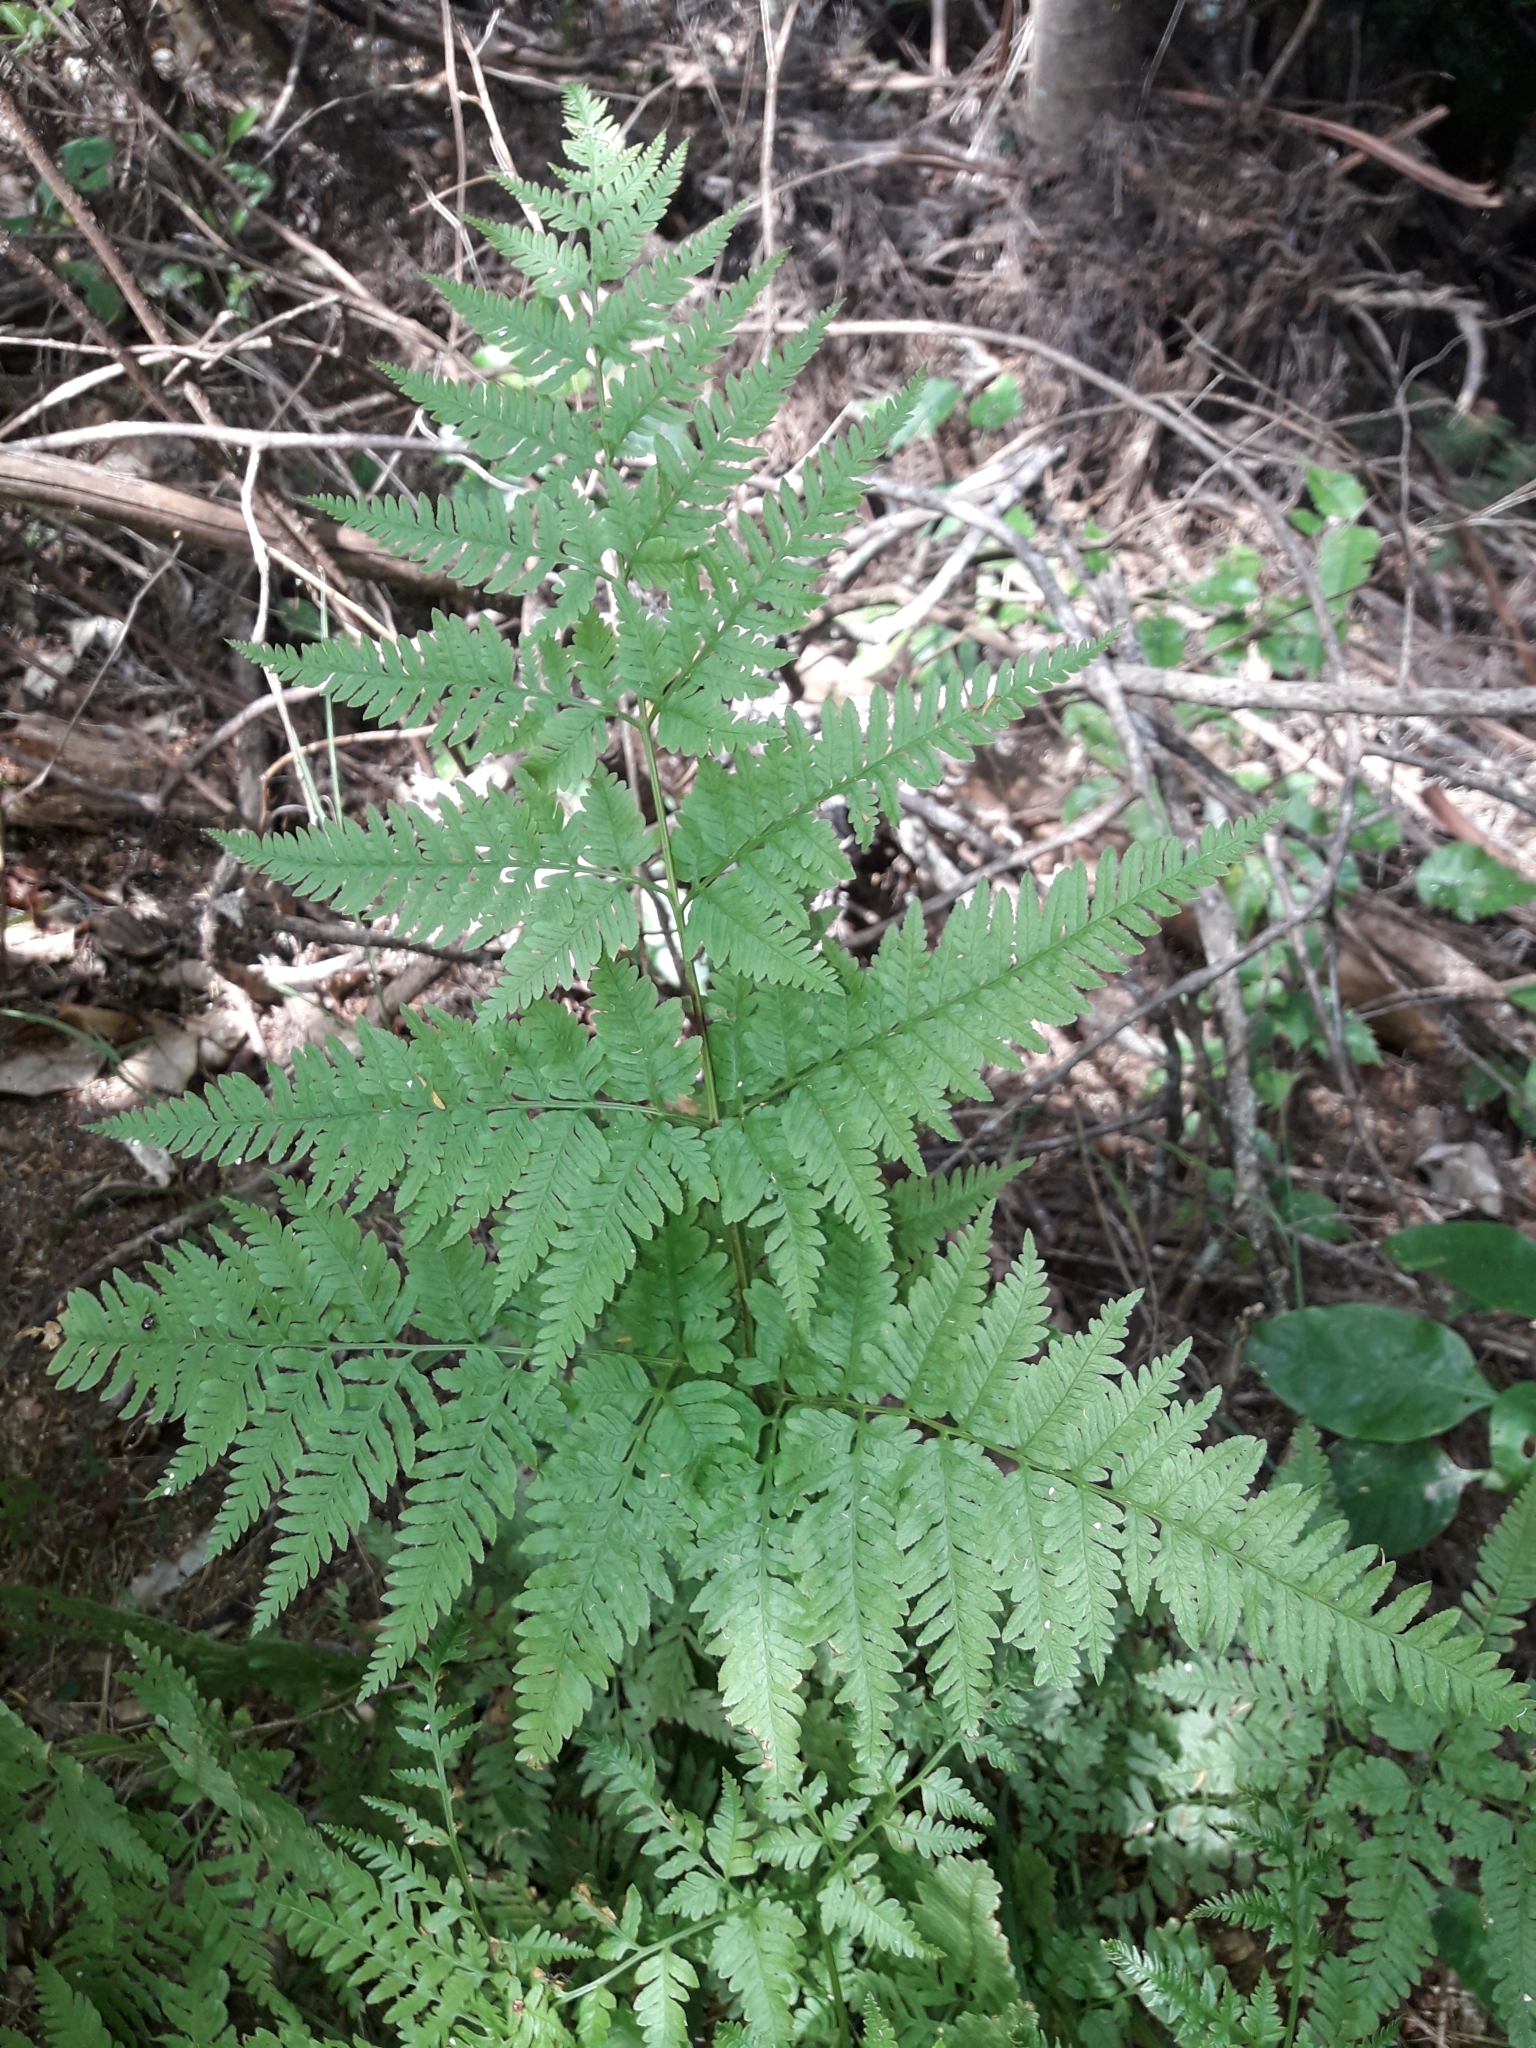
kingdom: Plantae
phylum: Tracheophyta
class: Polypodiopsida
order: Polypodiales
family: Pteridaceae
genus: Pteris
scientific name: Pteris tremula
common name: Australian brake
